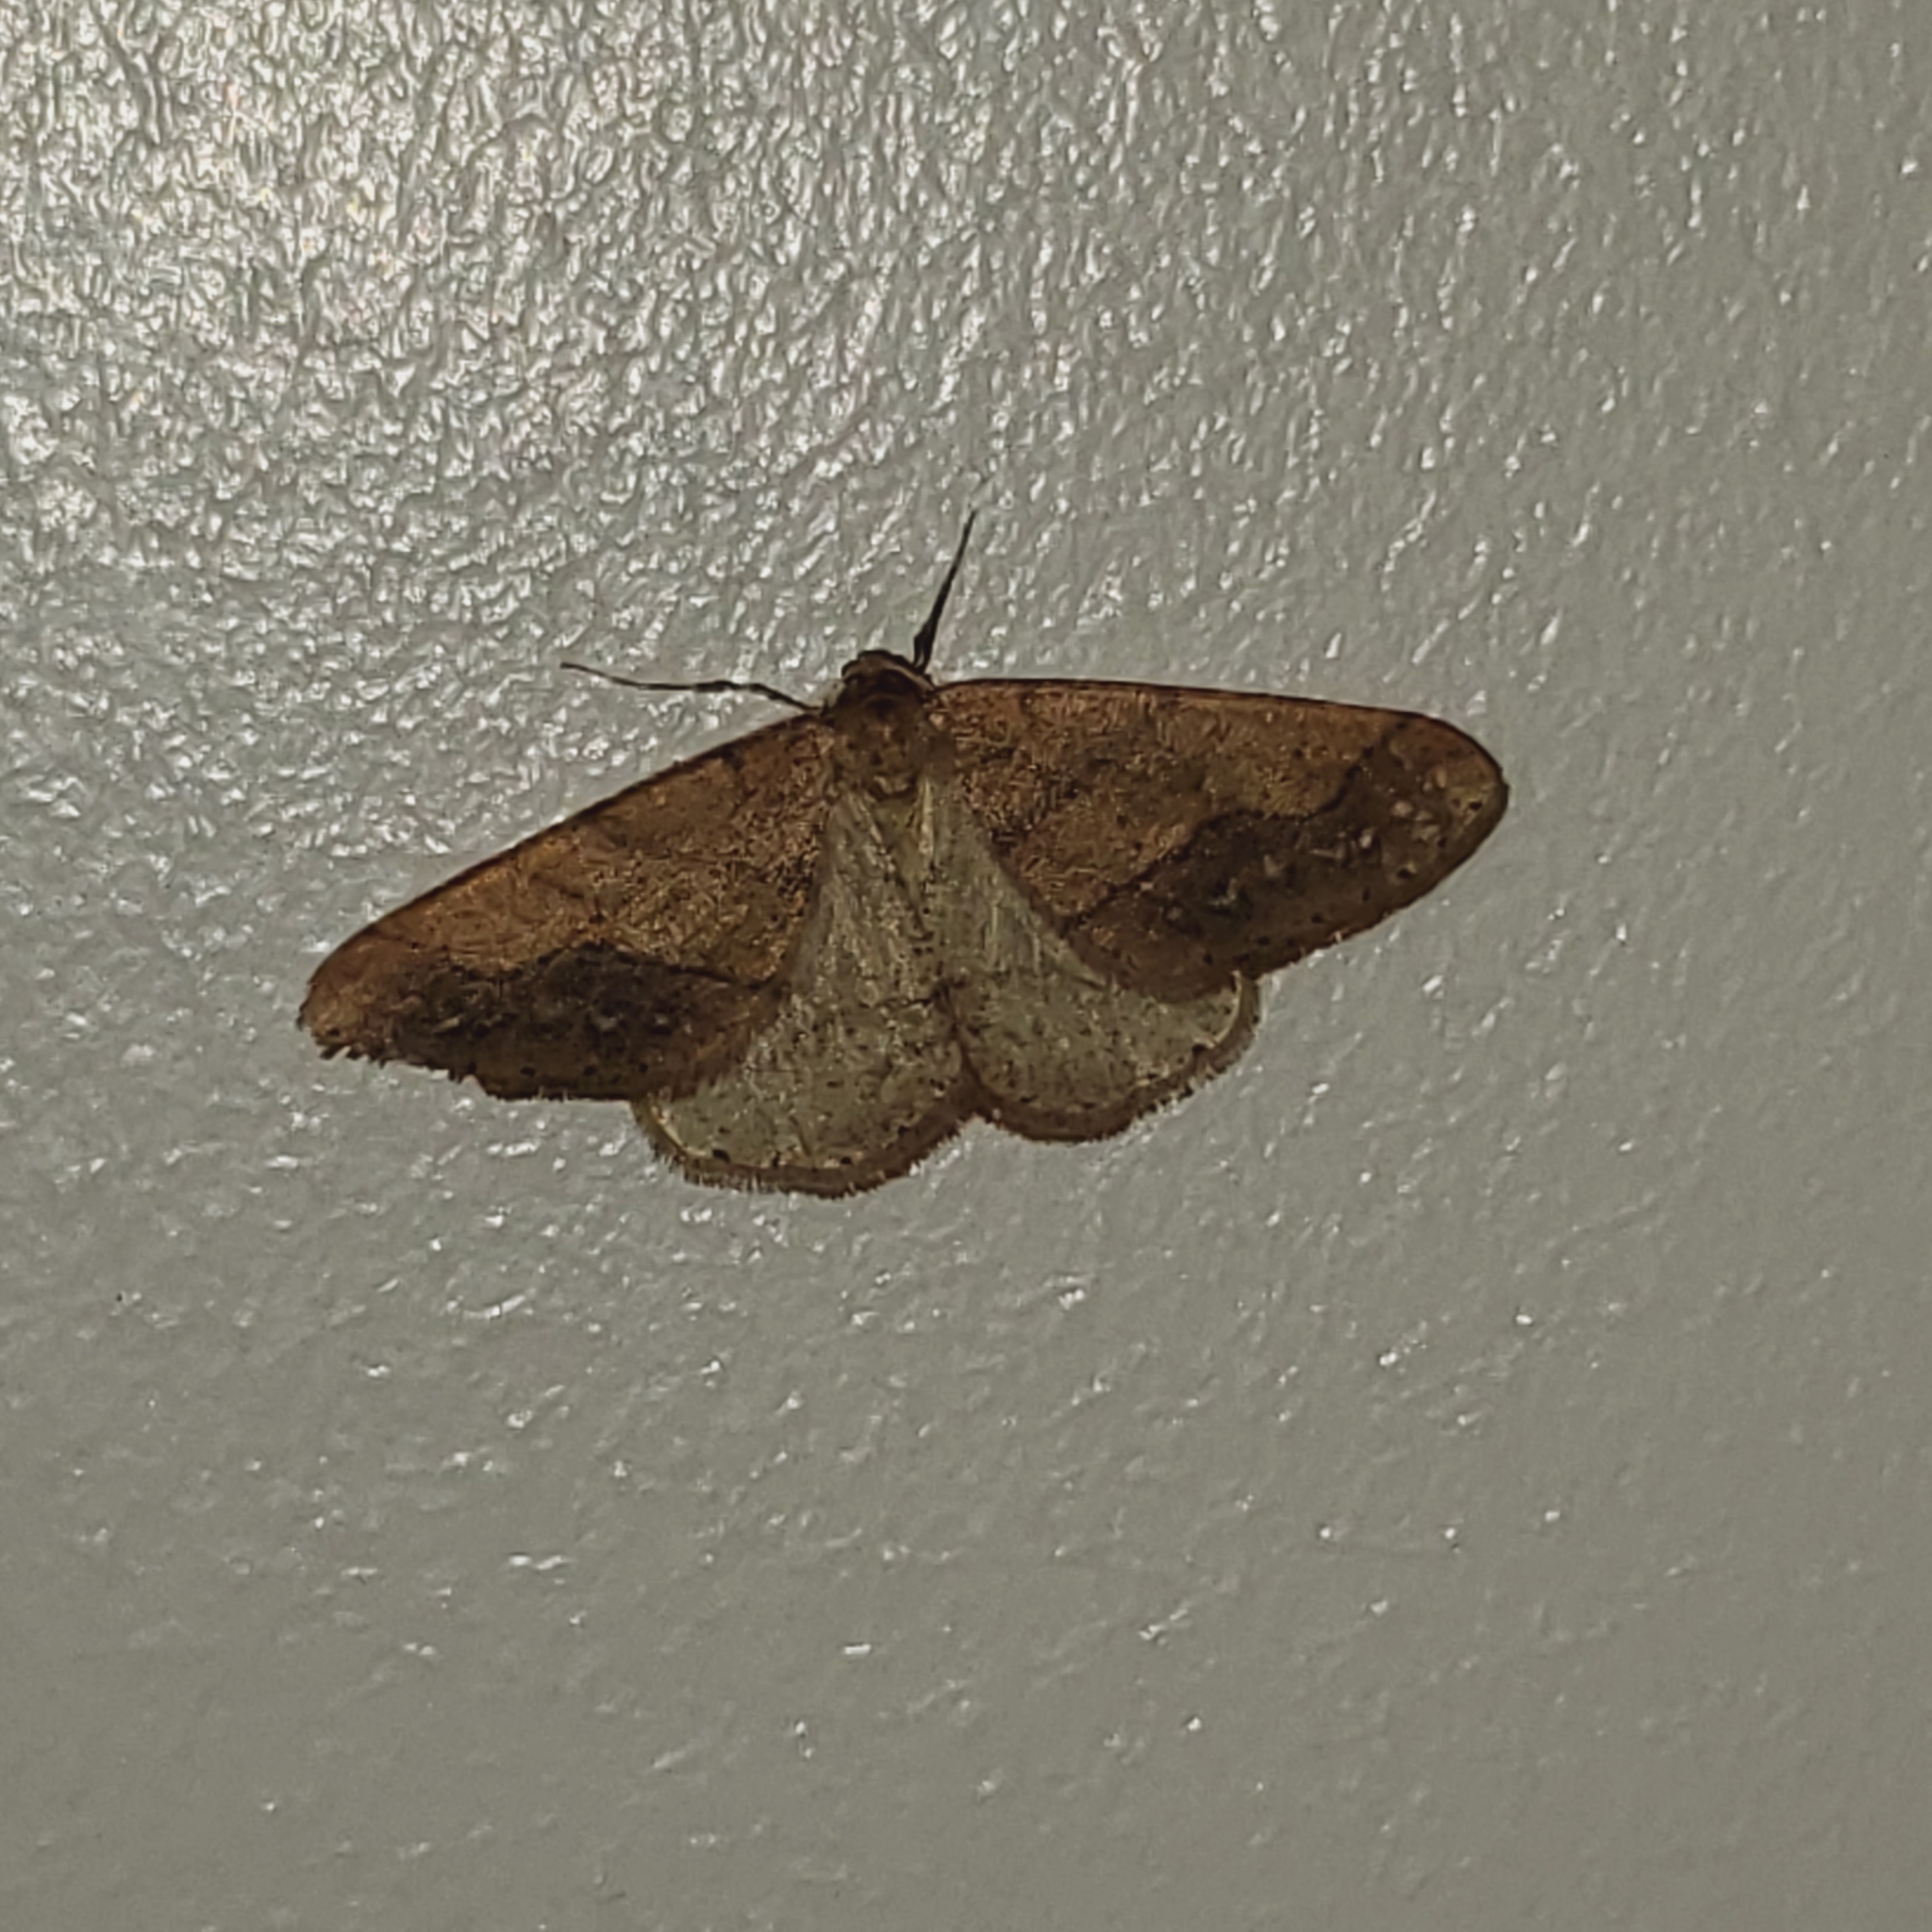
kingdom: Animalia
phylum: Arthropoda
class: Insecta
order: Lepidoptera
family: Geometridae
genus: Agriopis
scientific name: Agriopis marginaria
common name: Dotted border
